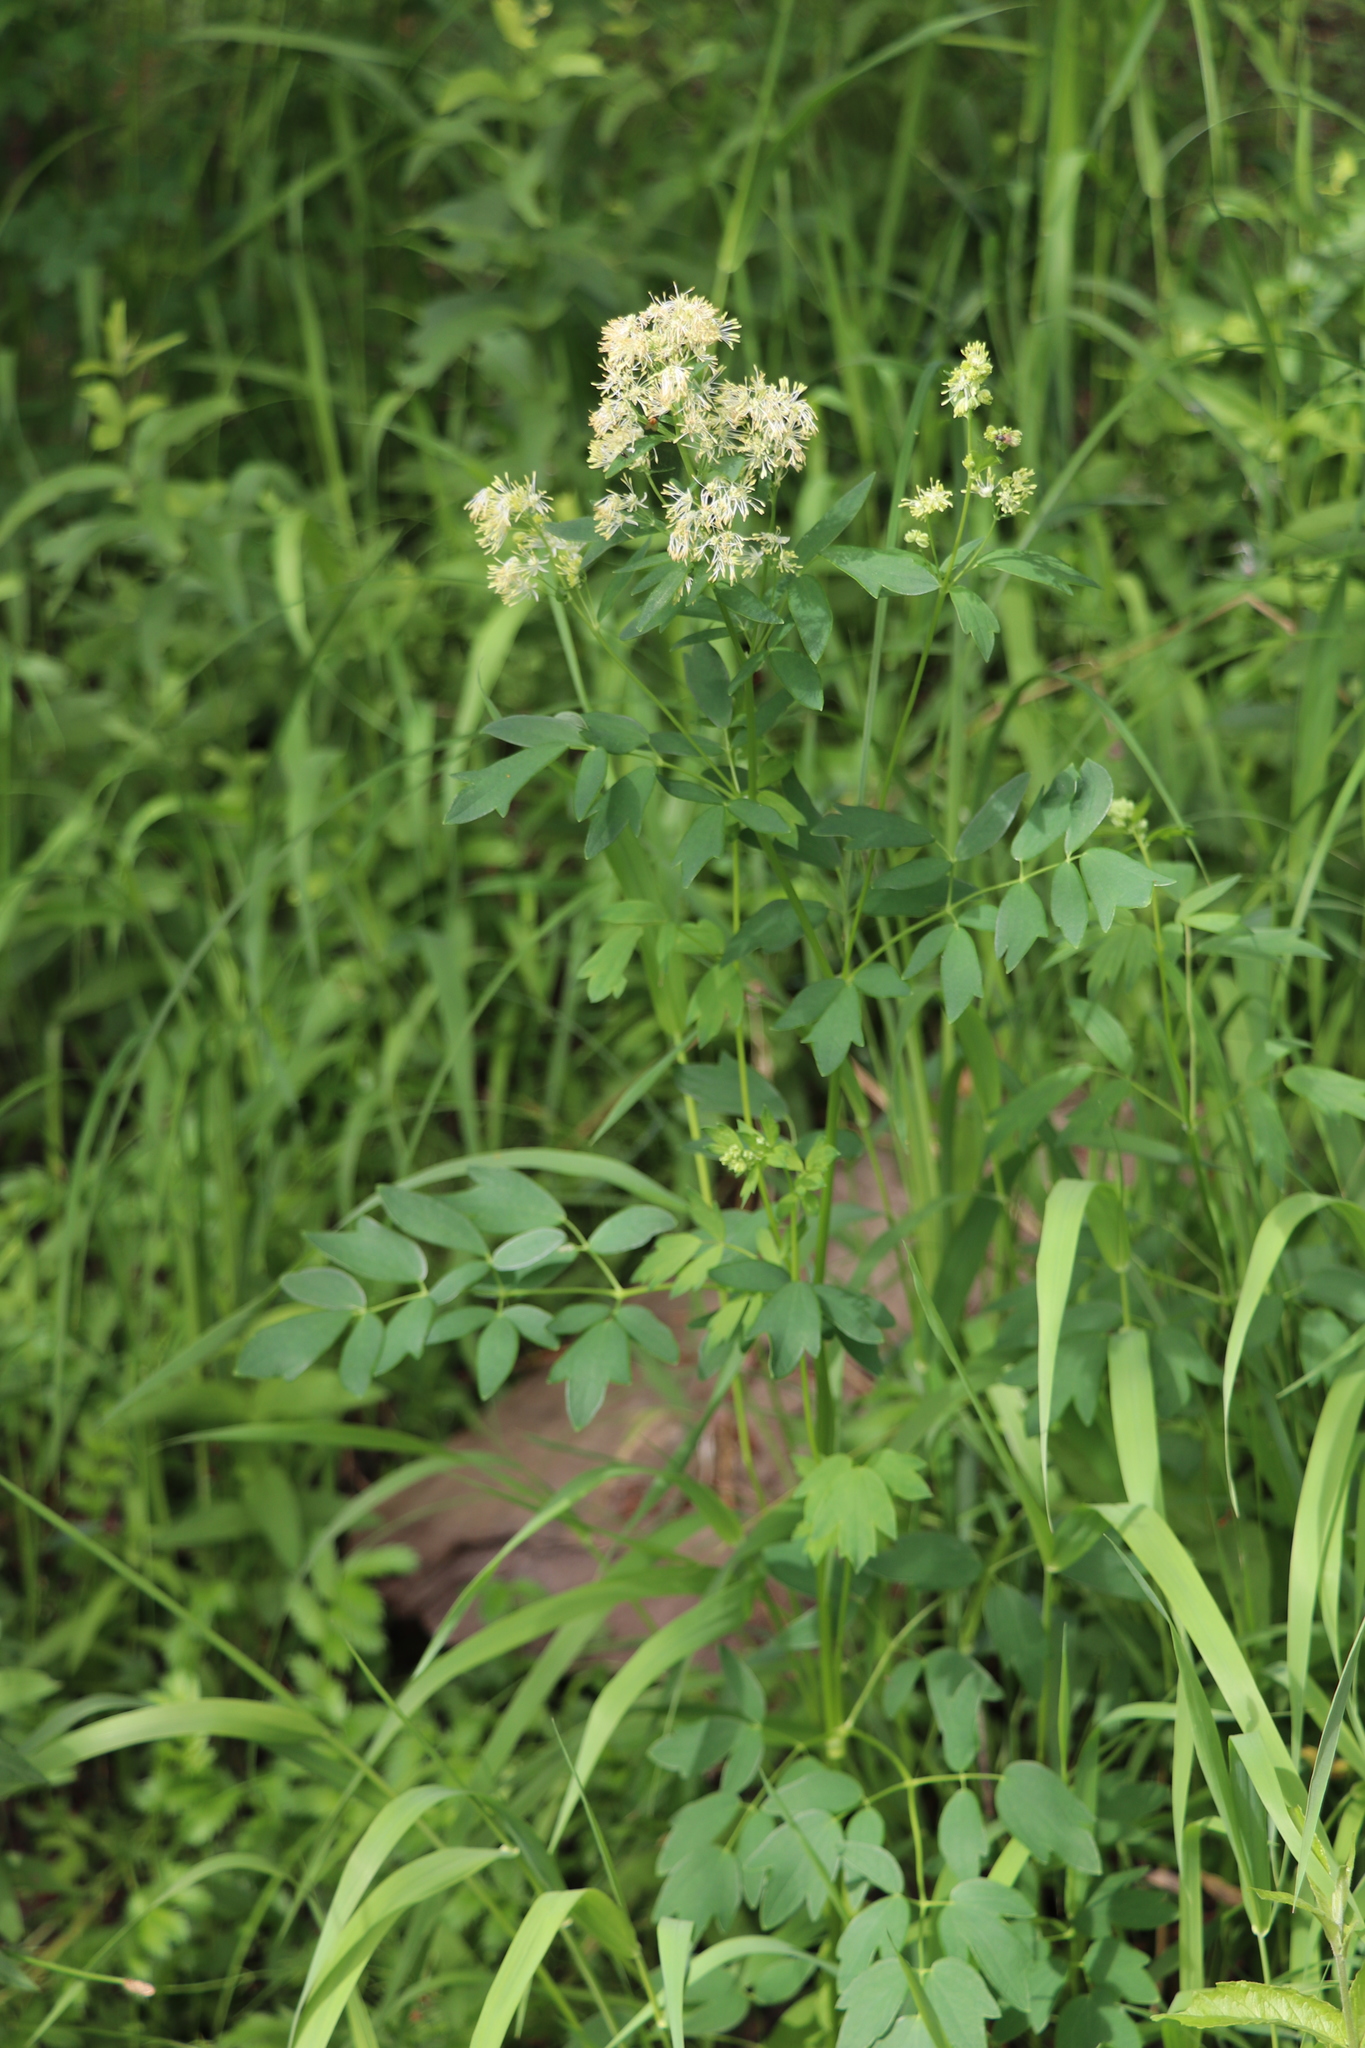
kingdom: Plantae
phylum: Tracheophyta
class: Magnoliopsida
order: Ranunculales
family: Ranunculaceae
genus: Thalictrum
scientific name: Thalictrum flavum
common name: Common meadow-rue
